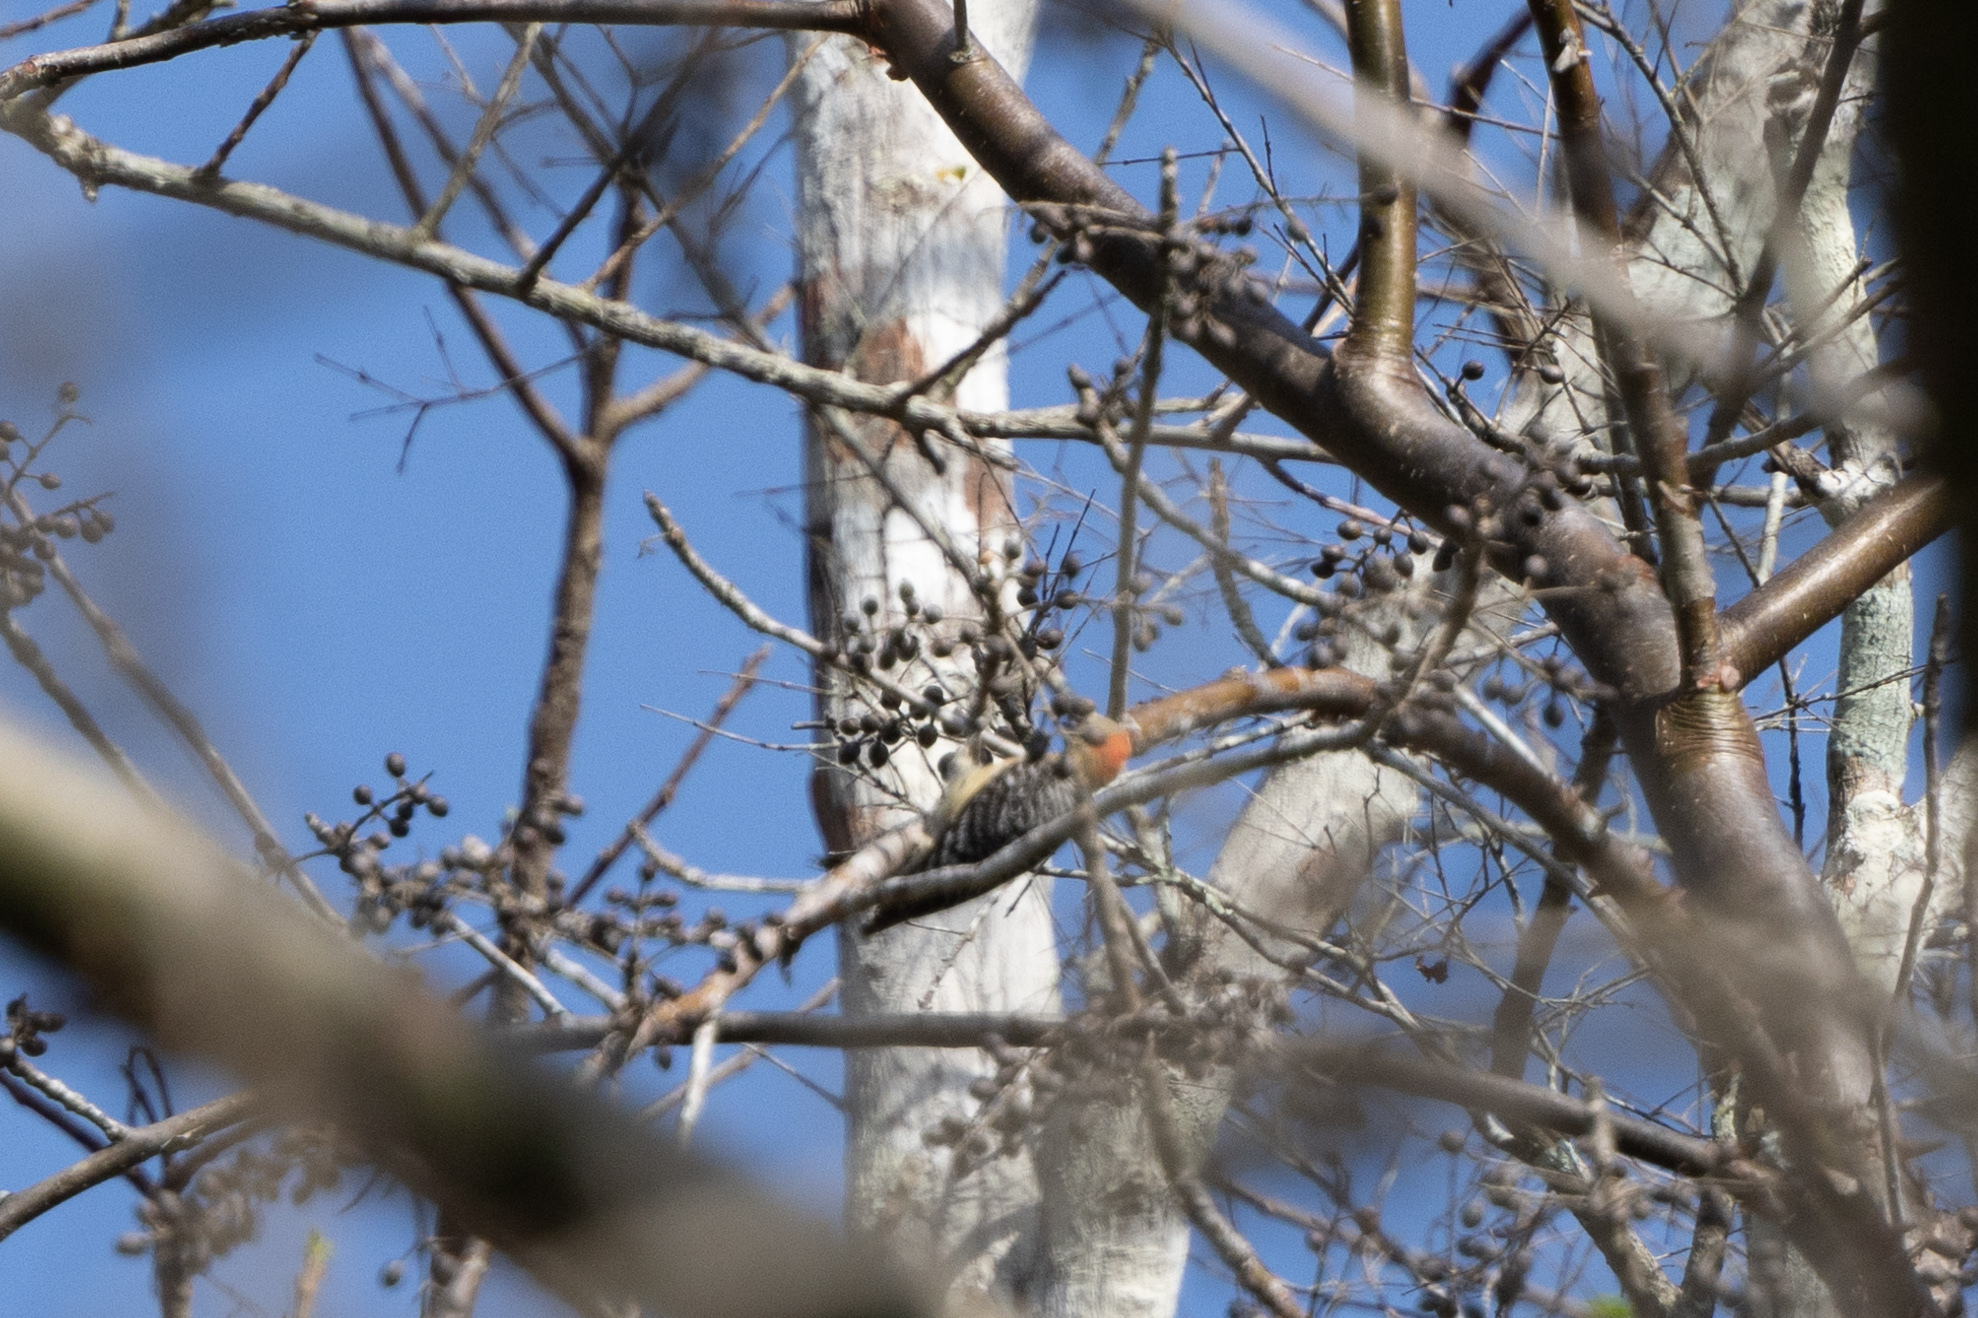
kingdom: Animalia
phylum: Chordata
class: Aves
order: Piciformes
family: Picidae
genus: Melanerpes
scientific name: Melanerpes rubricapillus
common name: Red-crowned woodpecker
